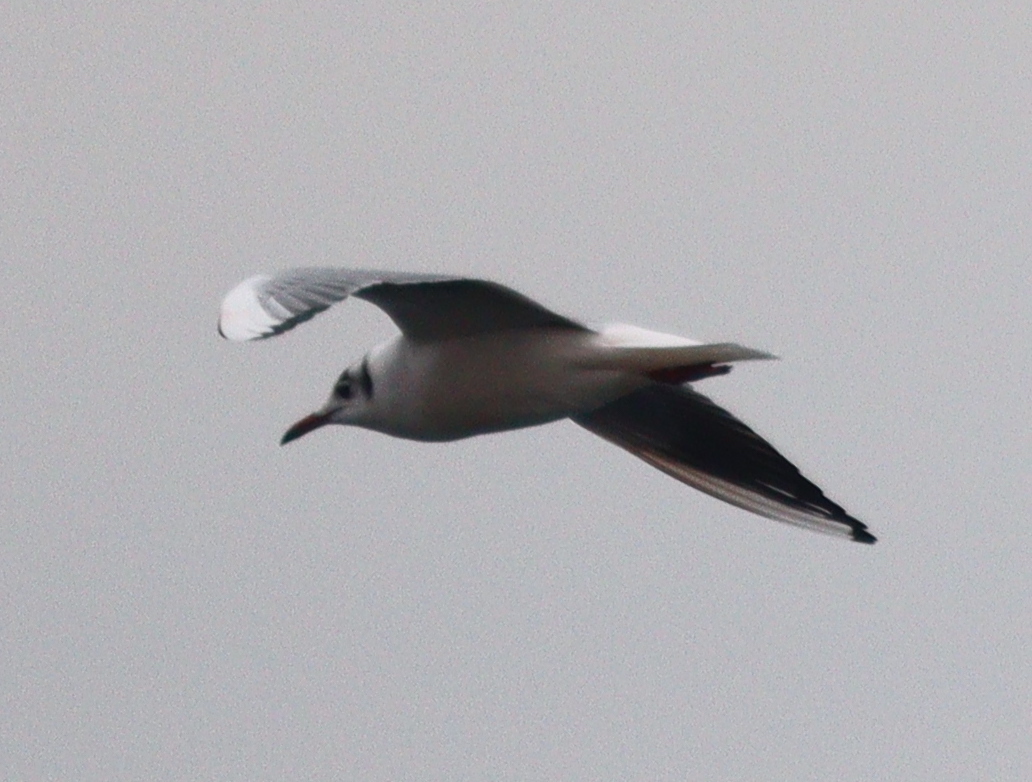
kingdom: Animalia
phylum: Chordata
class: Aves
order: Charadriiformes
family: Laridae
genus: Chroicocephalus
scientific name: Chroicocephalus ridibundus
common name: Black-headed gull
